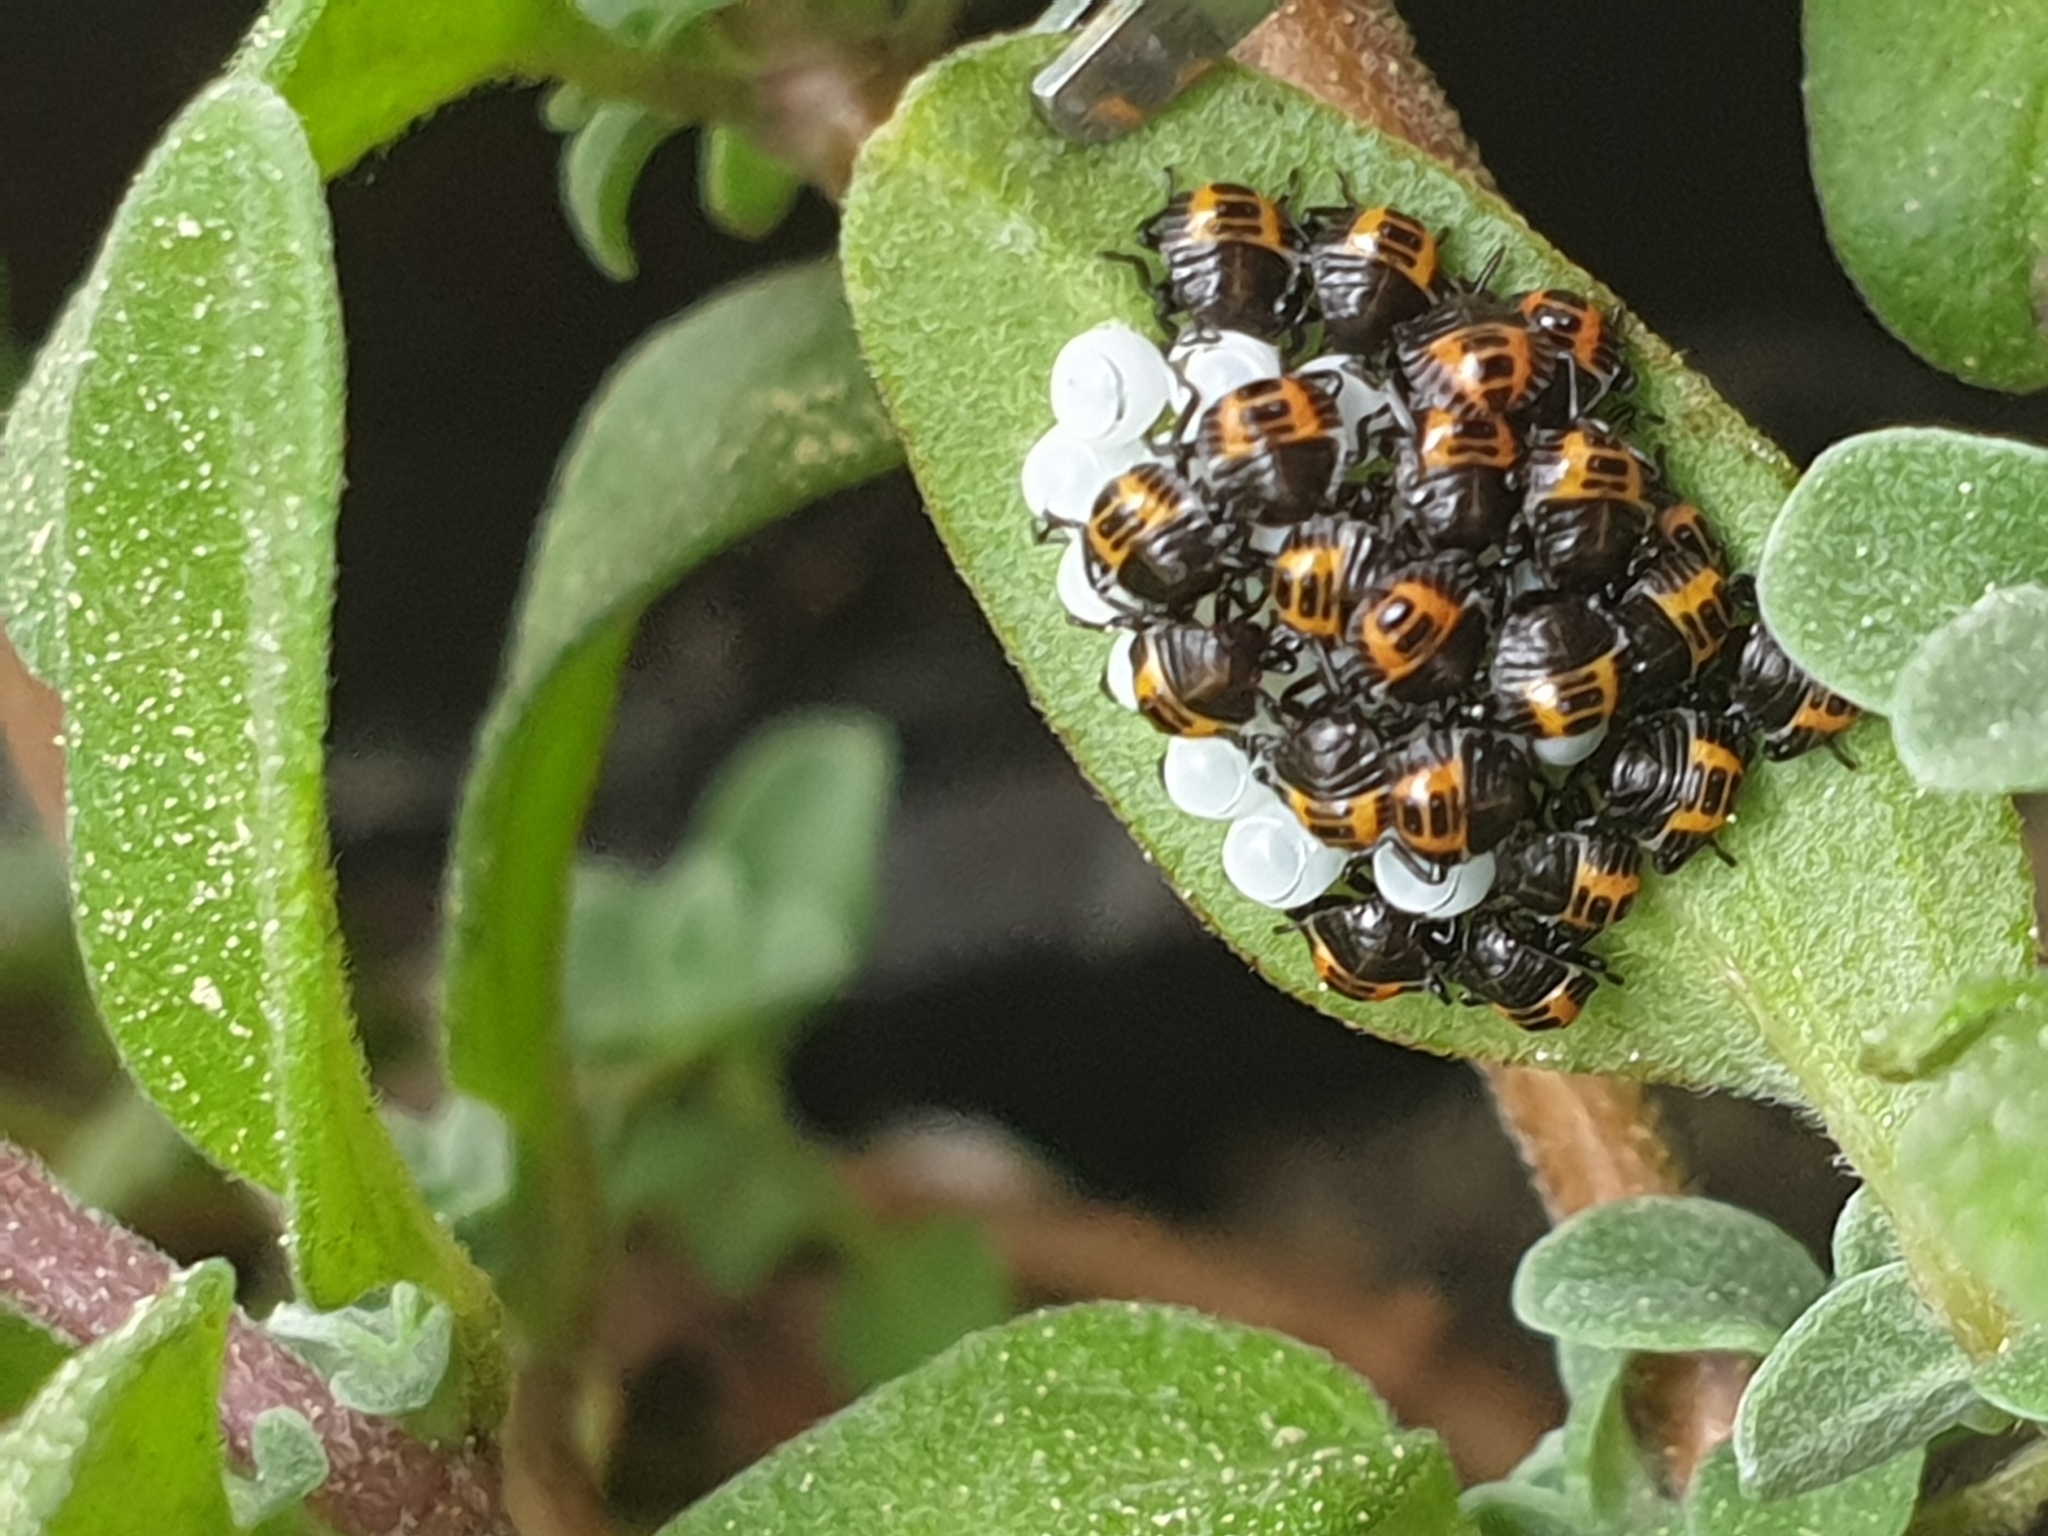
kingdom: Animalia
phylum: Arthropoda
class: Insecta
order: Hemiptera
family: Pentatomidae
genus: Halyomorpha
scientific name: Halyomorpha halys
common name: Brown marmorated stink bug
